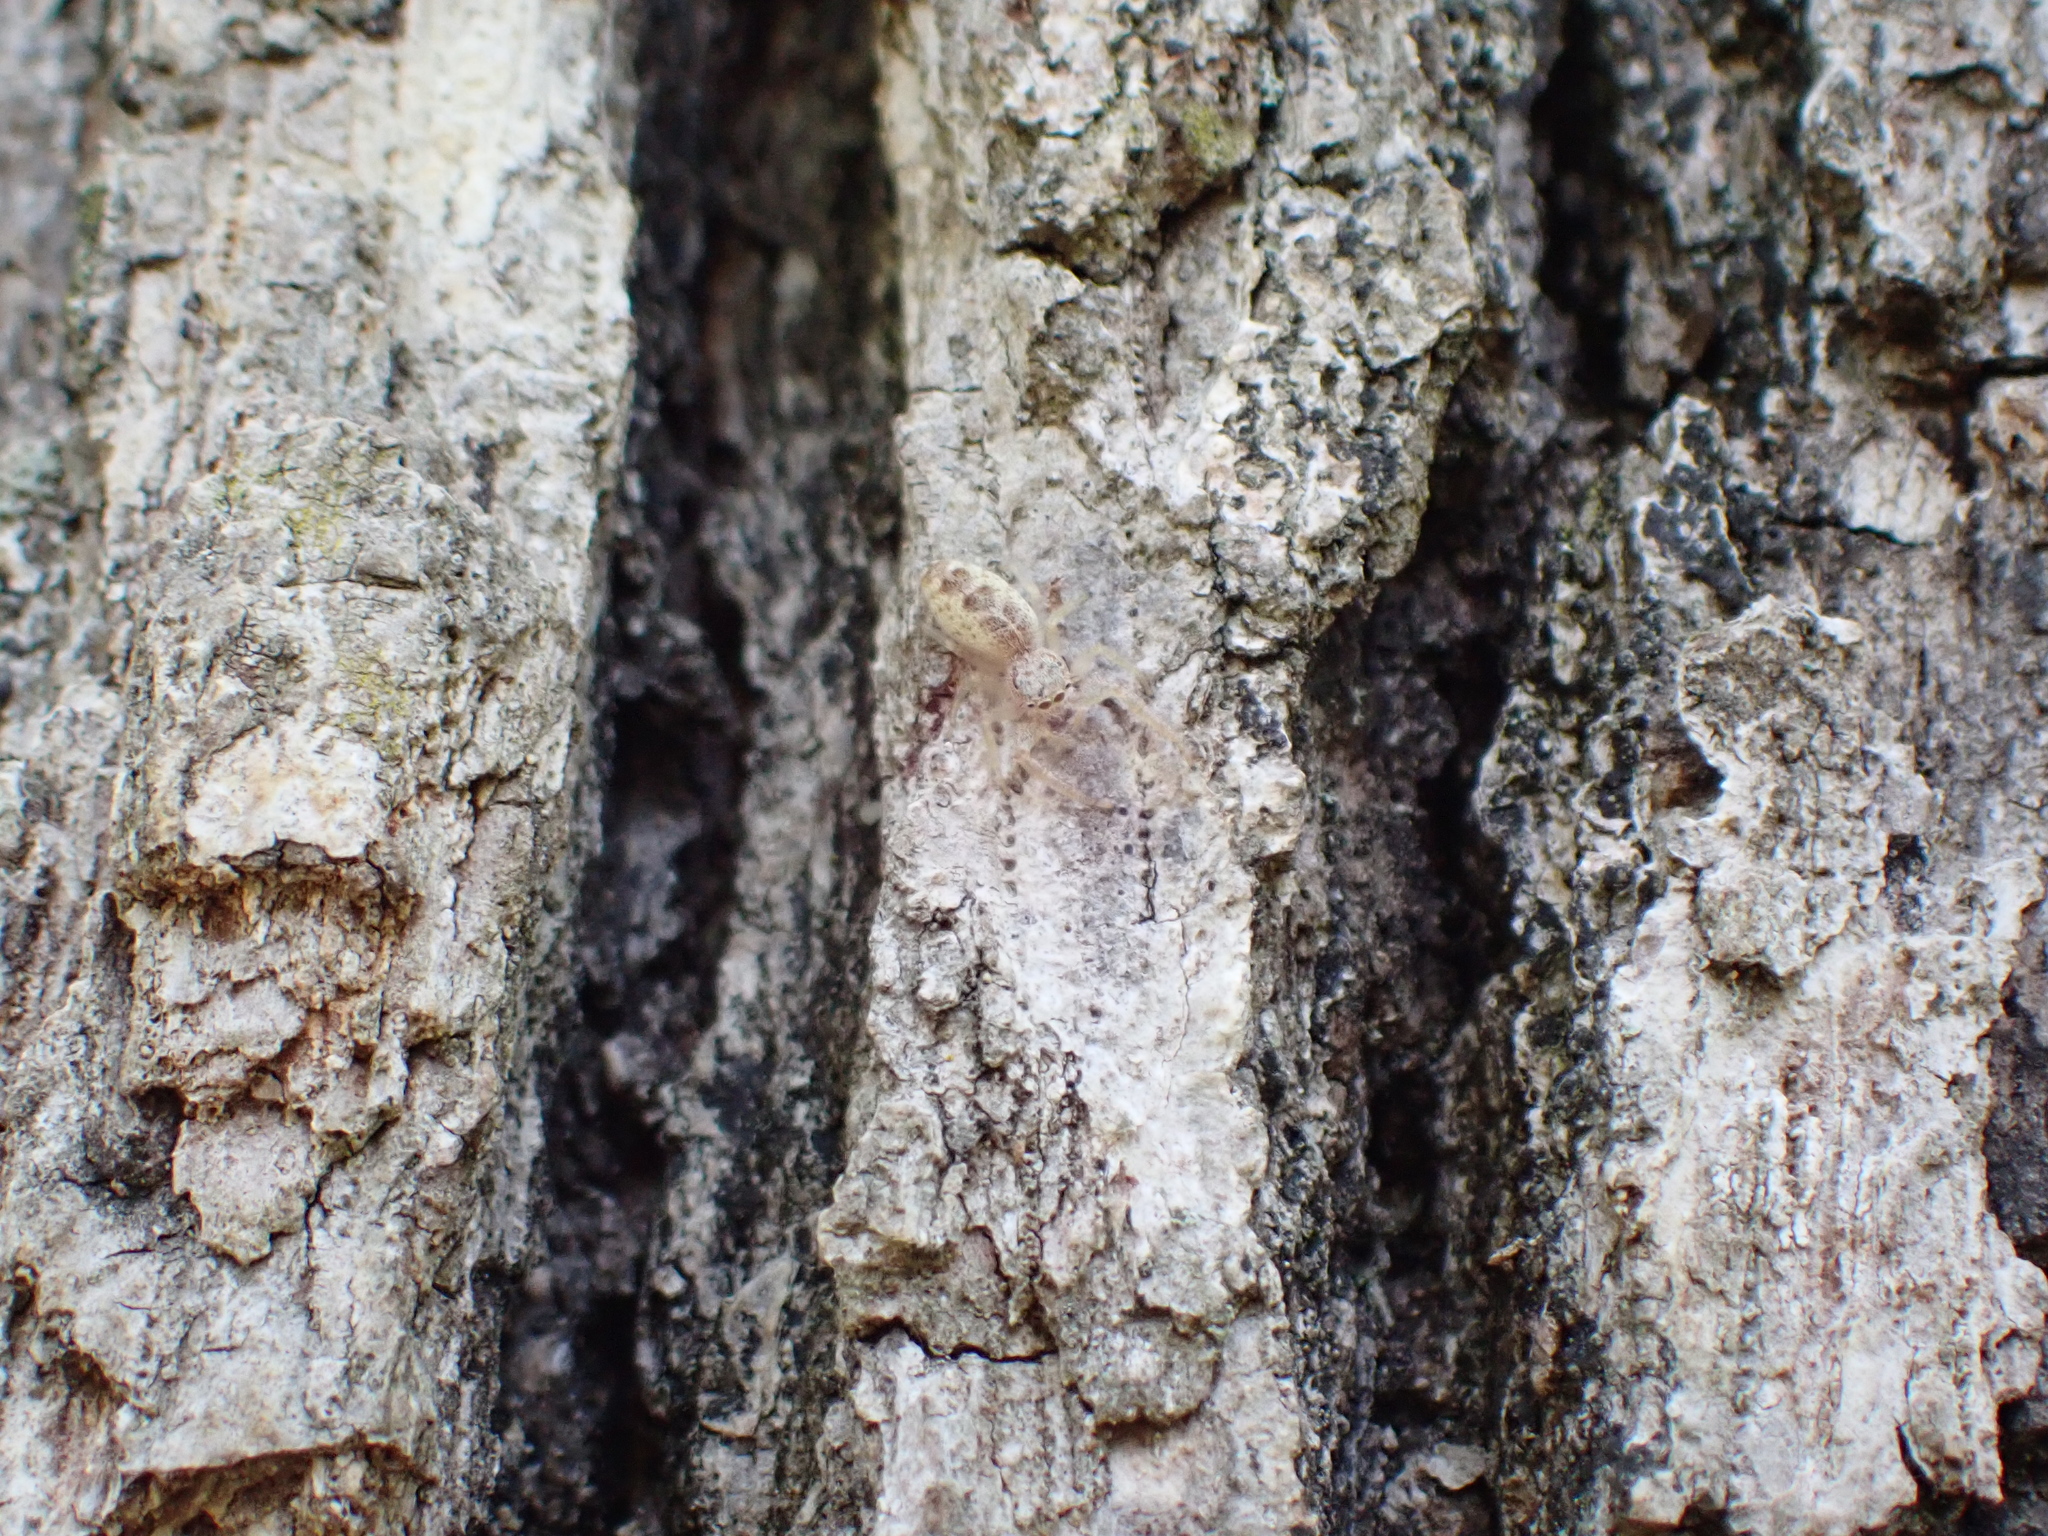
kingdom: Animalia
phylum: Arthropoda
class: Arachnida
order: Araneae
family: Salticidae
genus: Hentzia
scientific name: Hentzia mitrata
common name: White-jawed jumping spider
